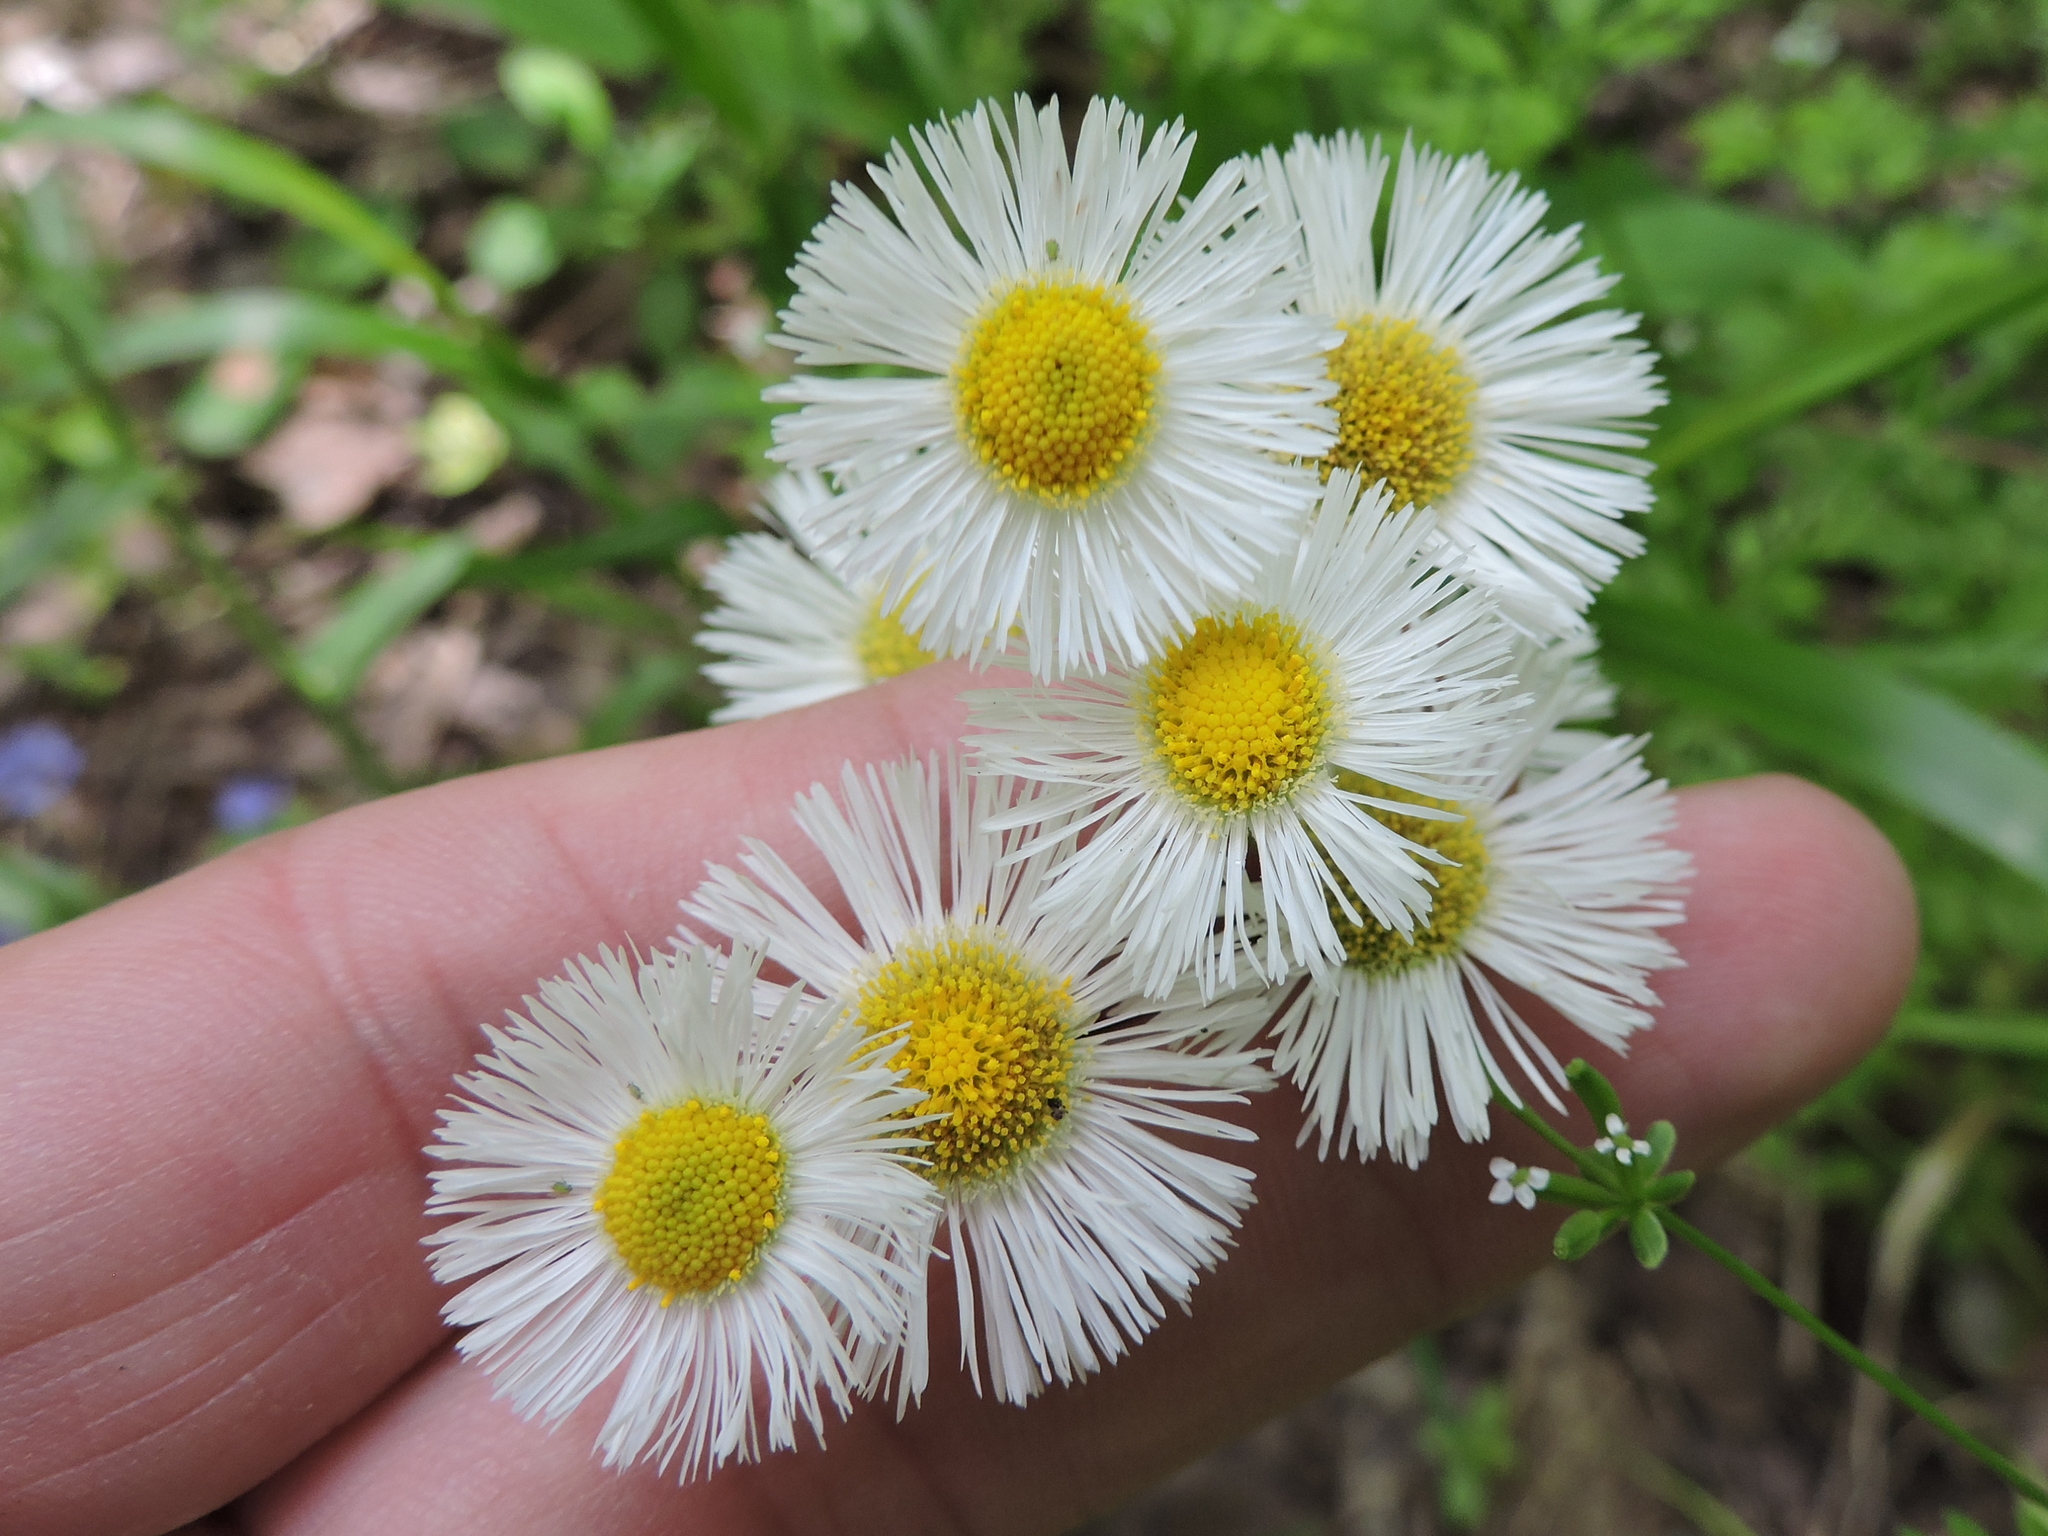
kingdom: Plantae
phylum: Tracheophyta
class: Magnoliopsida
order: Asterales
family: Asteraceae
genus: Erigeron
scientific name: Erigeron philadelphicus
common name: Robin's-plantain
